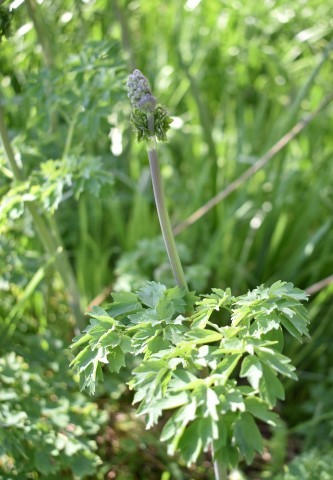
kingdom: Plantae
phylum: Tracheophyta
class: Magnoliopsida
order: Ranunculales
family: Ranunculaceae
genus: Thalictrum
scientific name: Thalictrum fendleri
